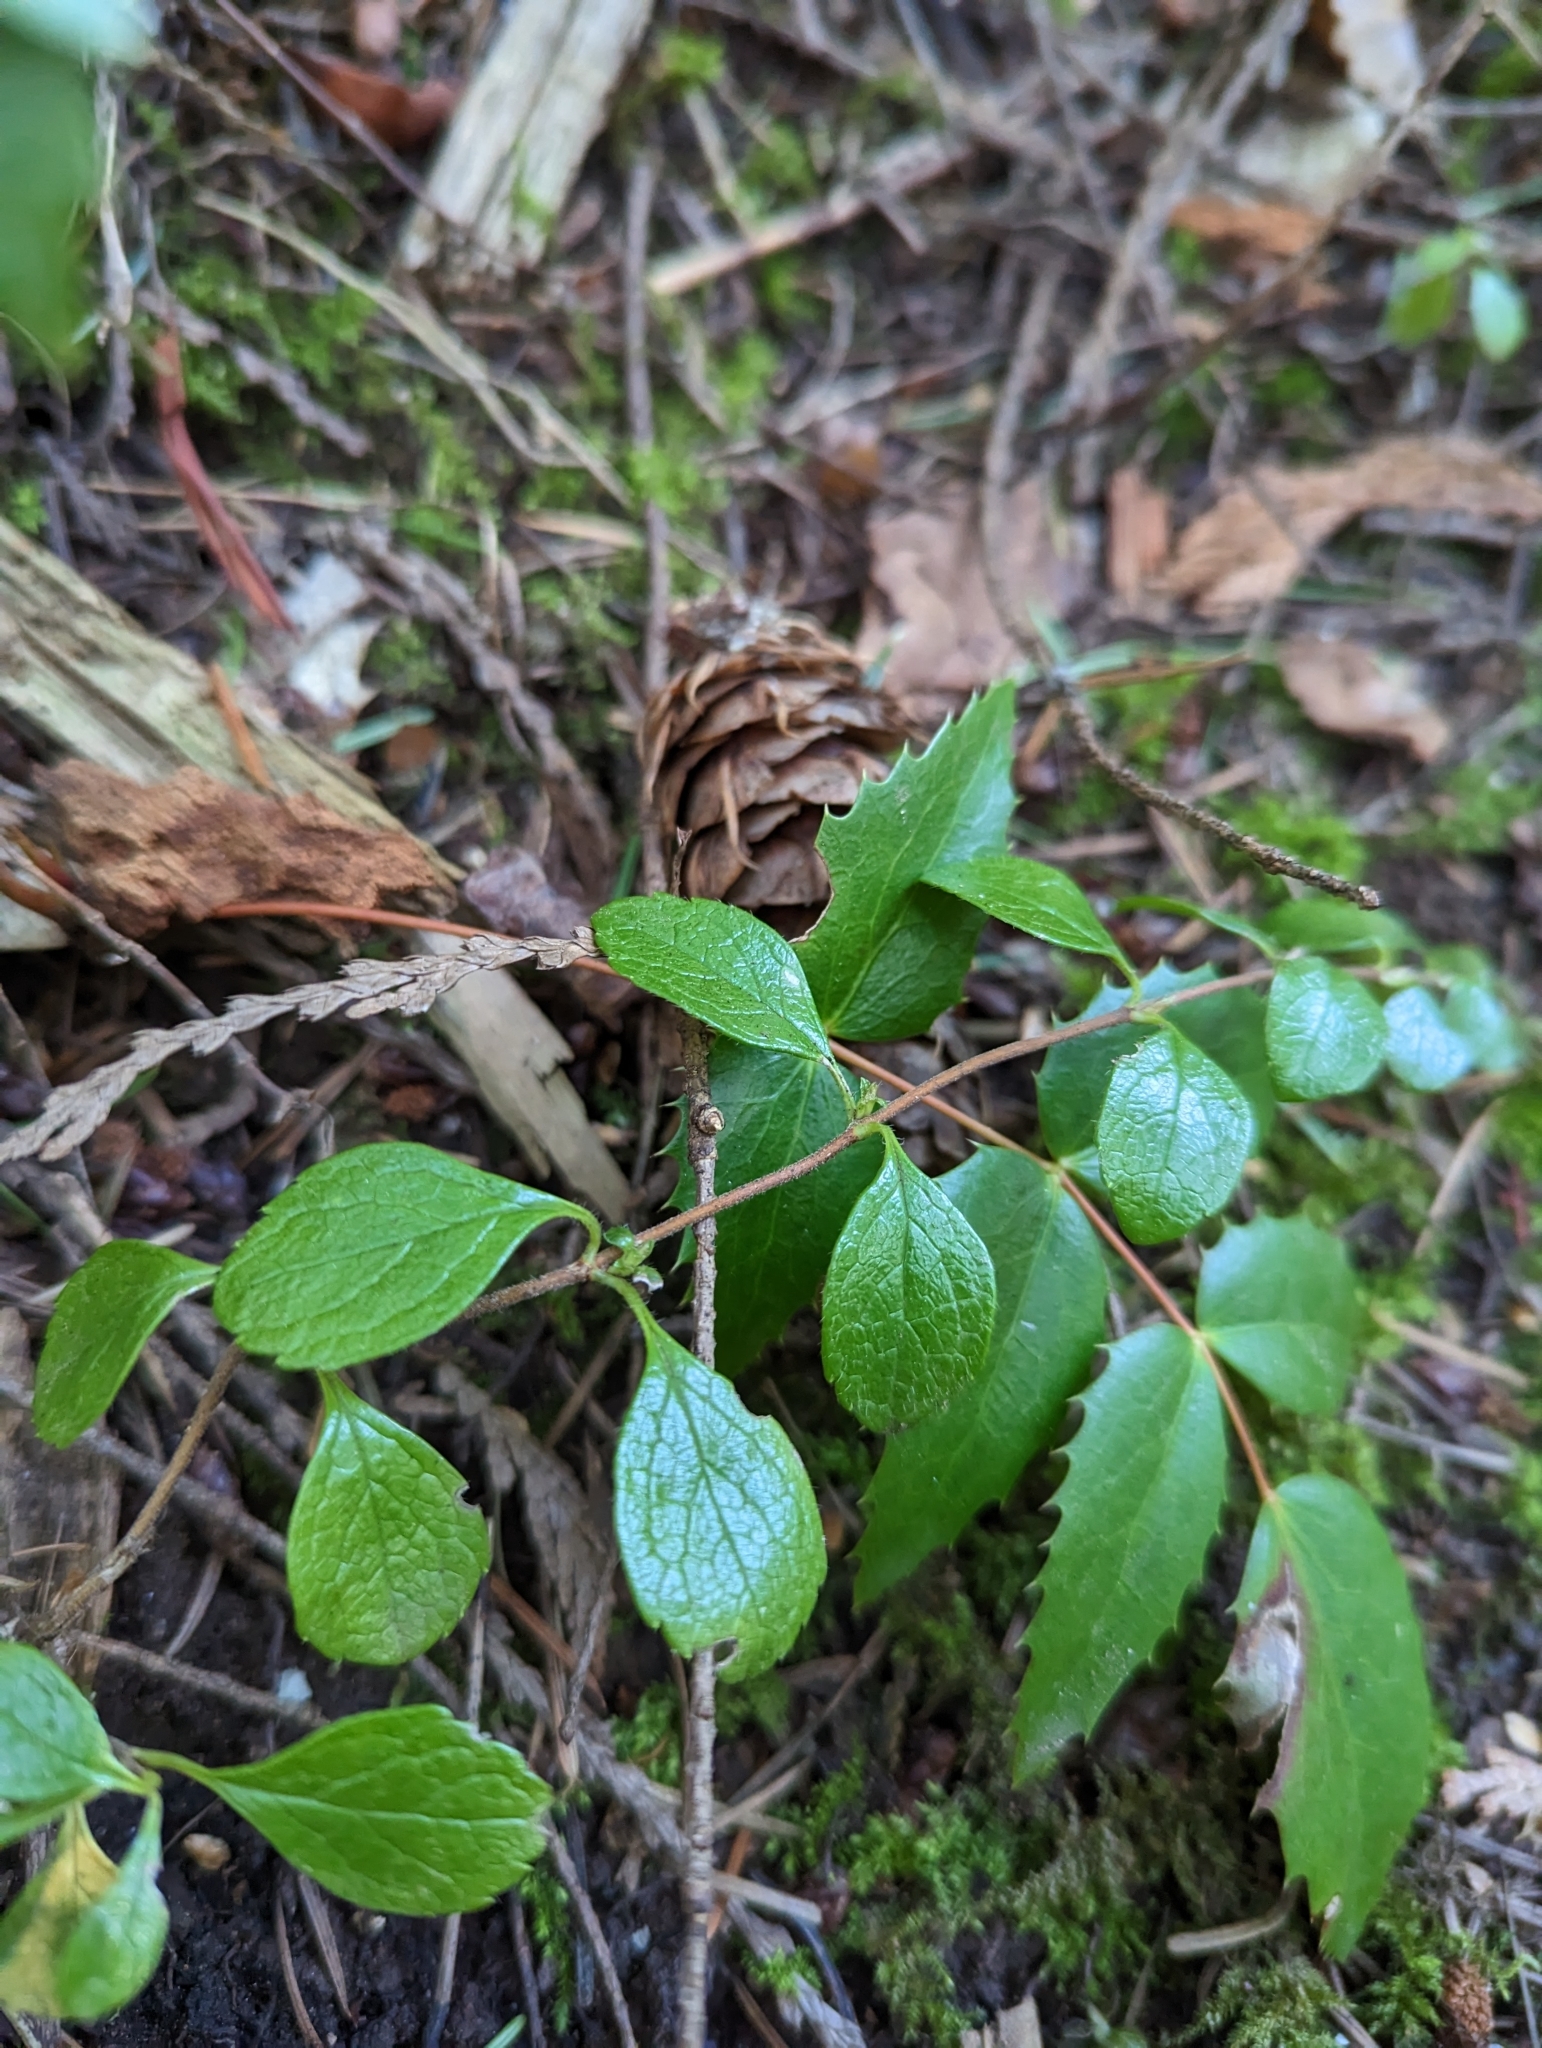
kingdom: Plantae
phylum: Tracheophyta
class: Magnoliopsida
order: Dipsacales
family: Caprifoliaceae
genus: Linnaea
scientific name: Linnaea borealis
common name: Twinflower
